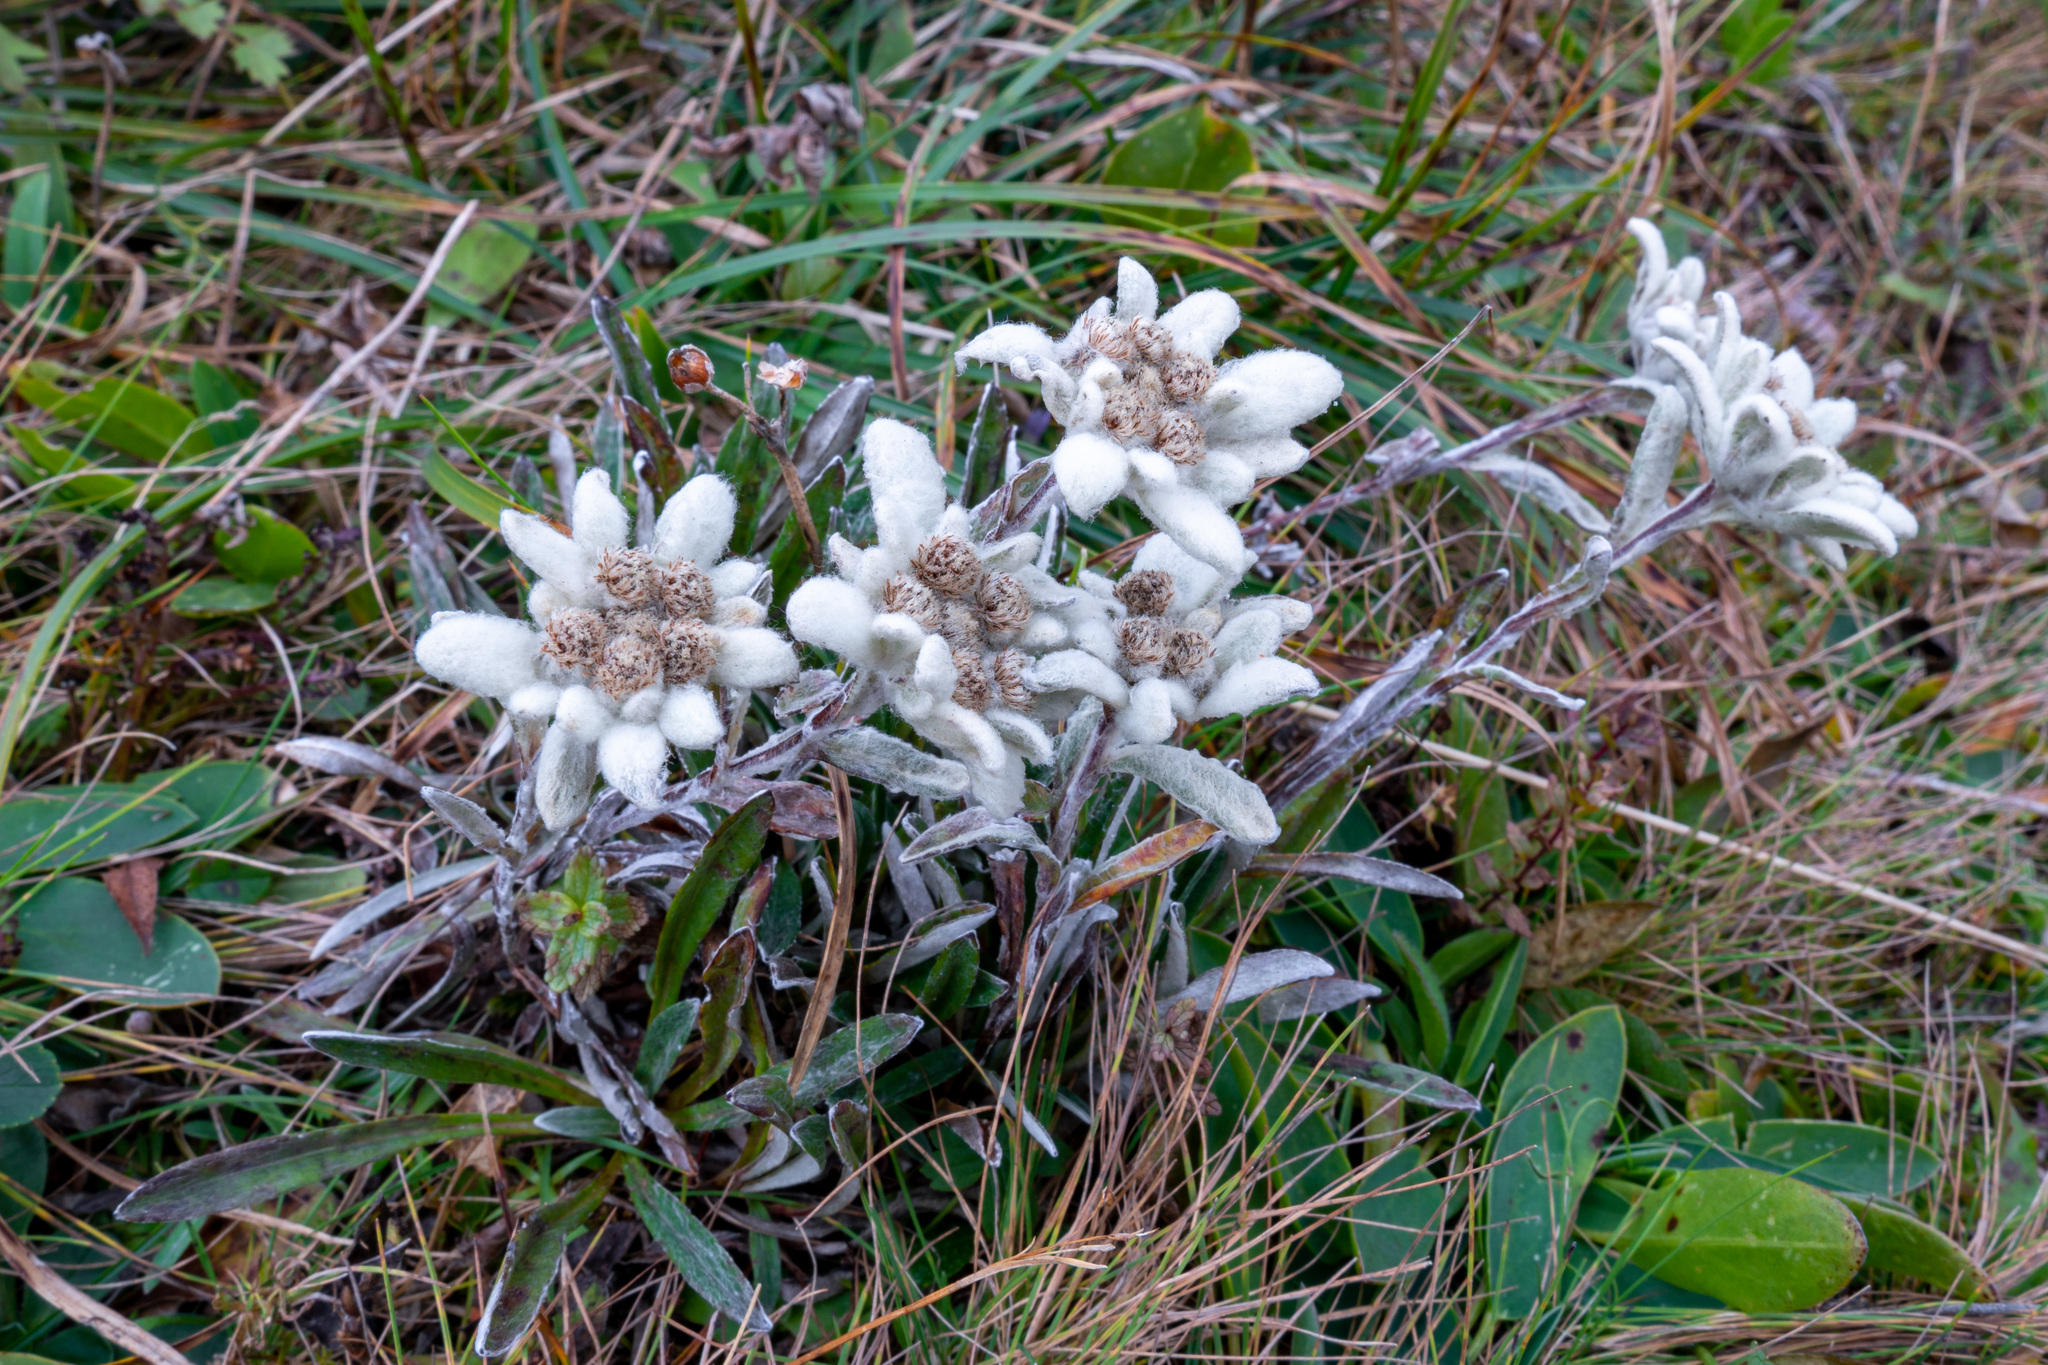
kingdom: Plantae
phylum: Tracheophyta
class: Magnoliopsida
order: Asterales
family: Asteraceae
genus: Leontopodium
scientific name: Leontopodium nivale
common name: Edelweiss
